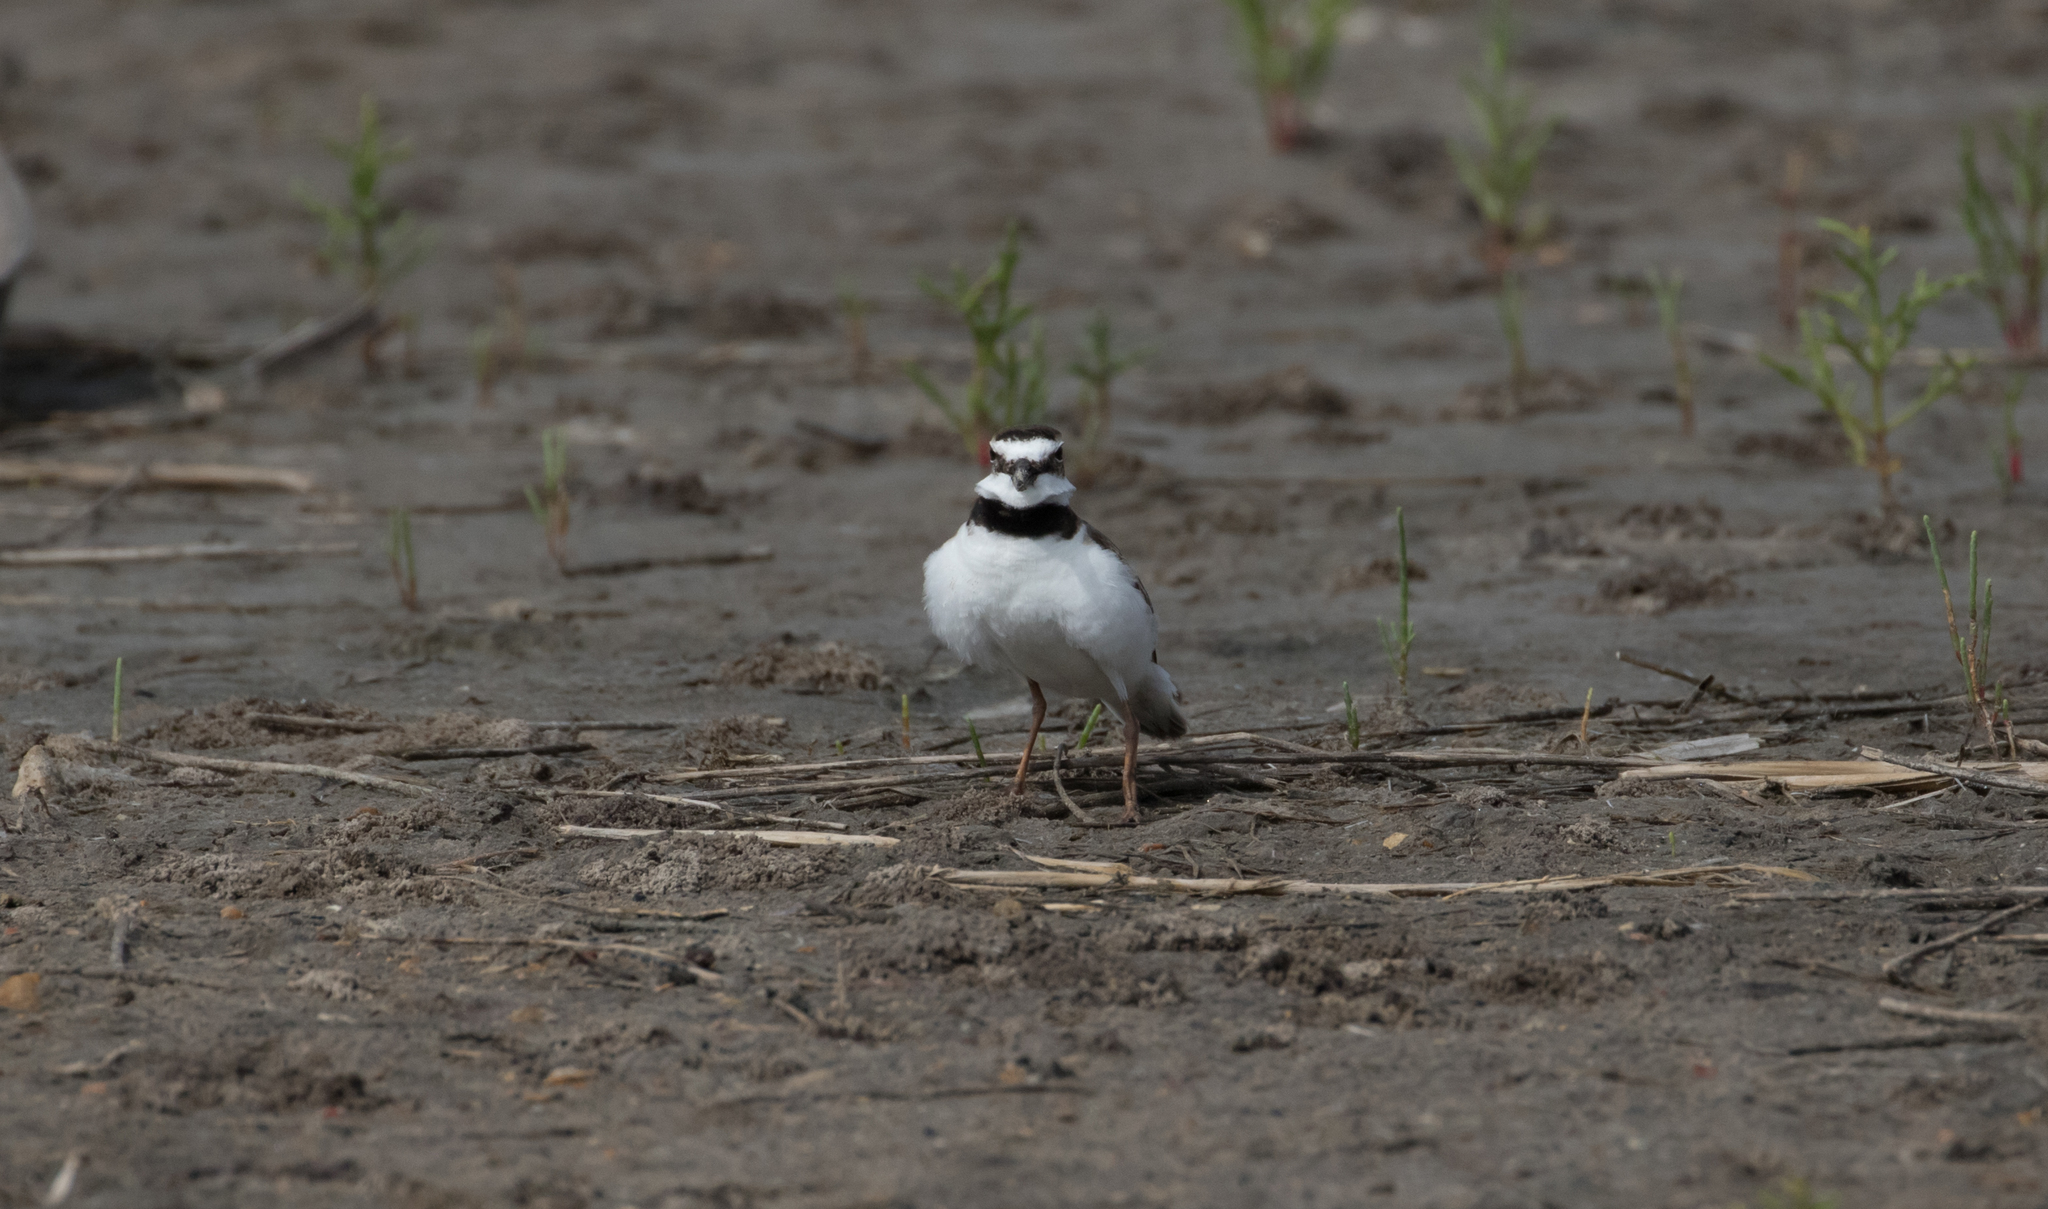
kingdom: Animalia
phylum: Chordata
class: Aves
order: Charadriiformes
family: Charadriidae
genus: Anarhynchus
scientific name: Anarhynchus
